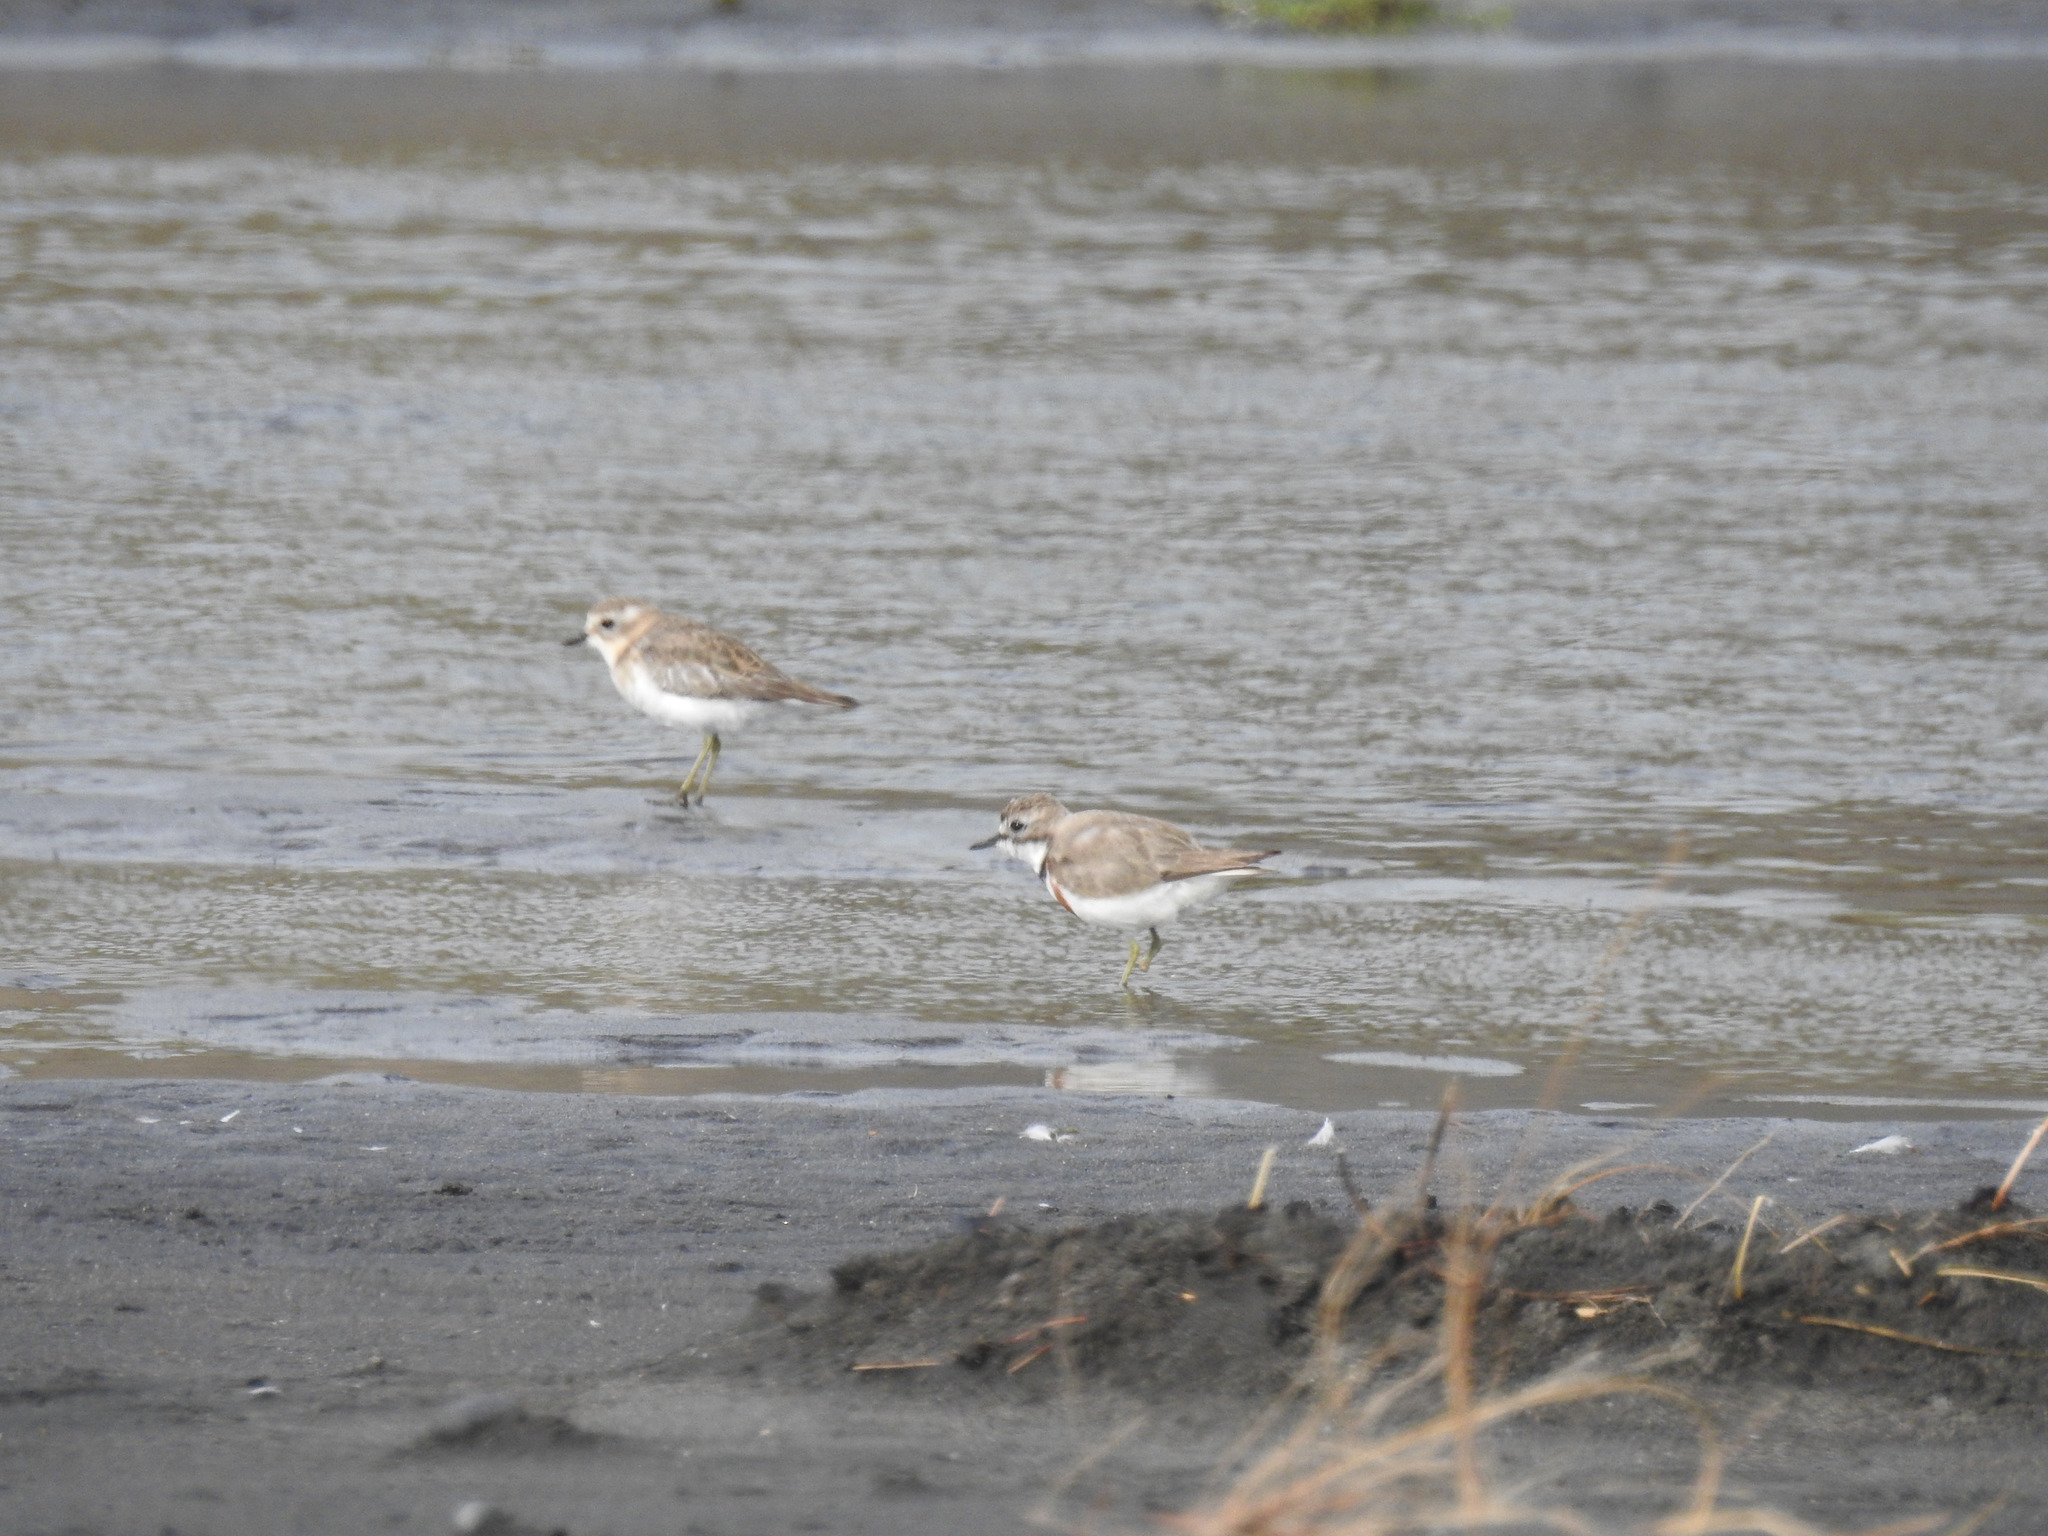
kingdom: Animalia
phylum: Chordata
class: Aves
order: Charadriiformes
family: Charadriidae
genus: Anarhynchus
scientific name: Anarhynchus
